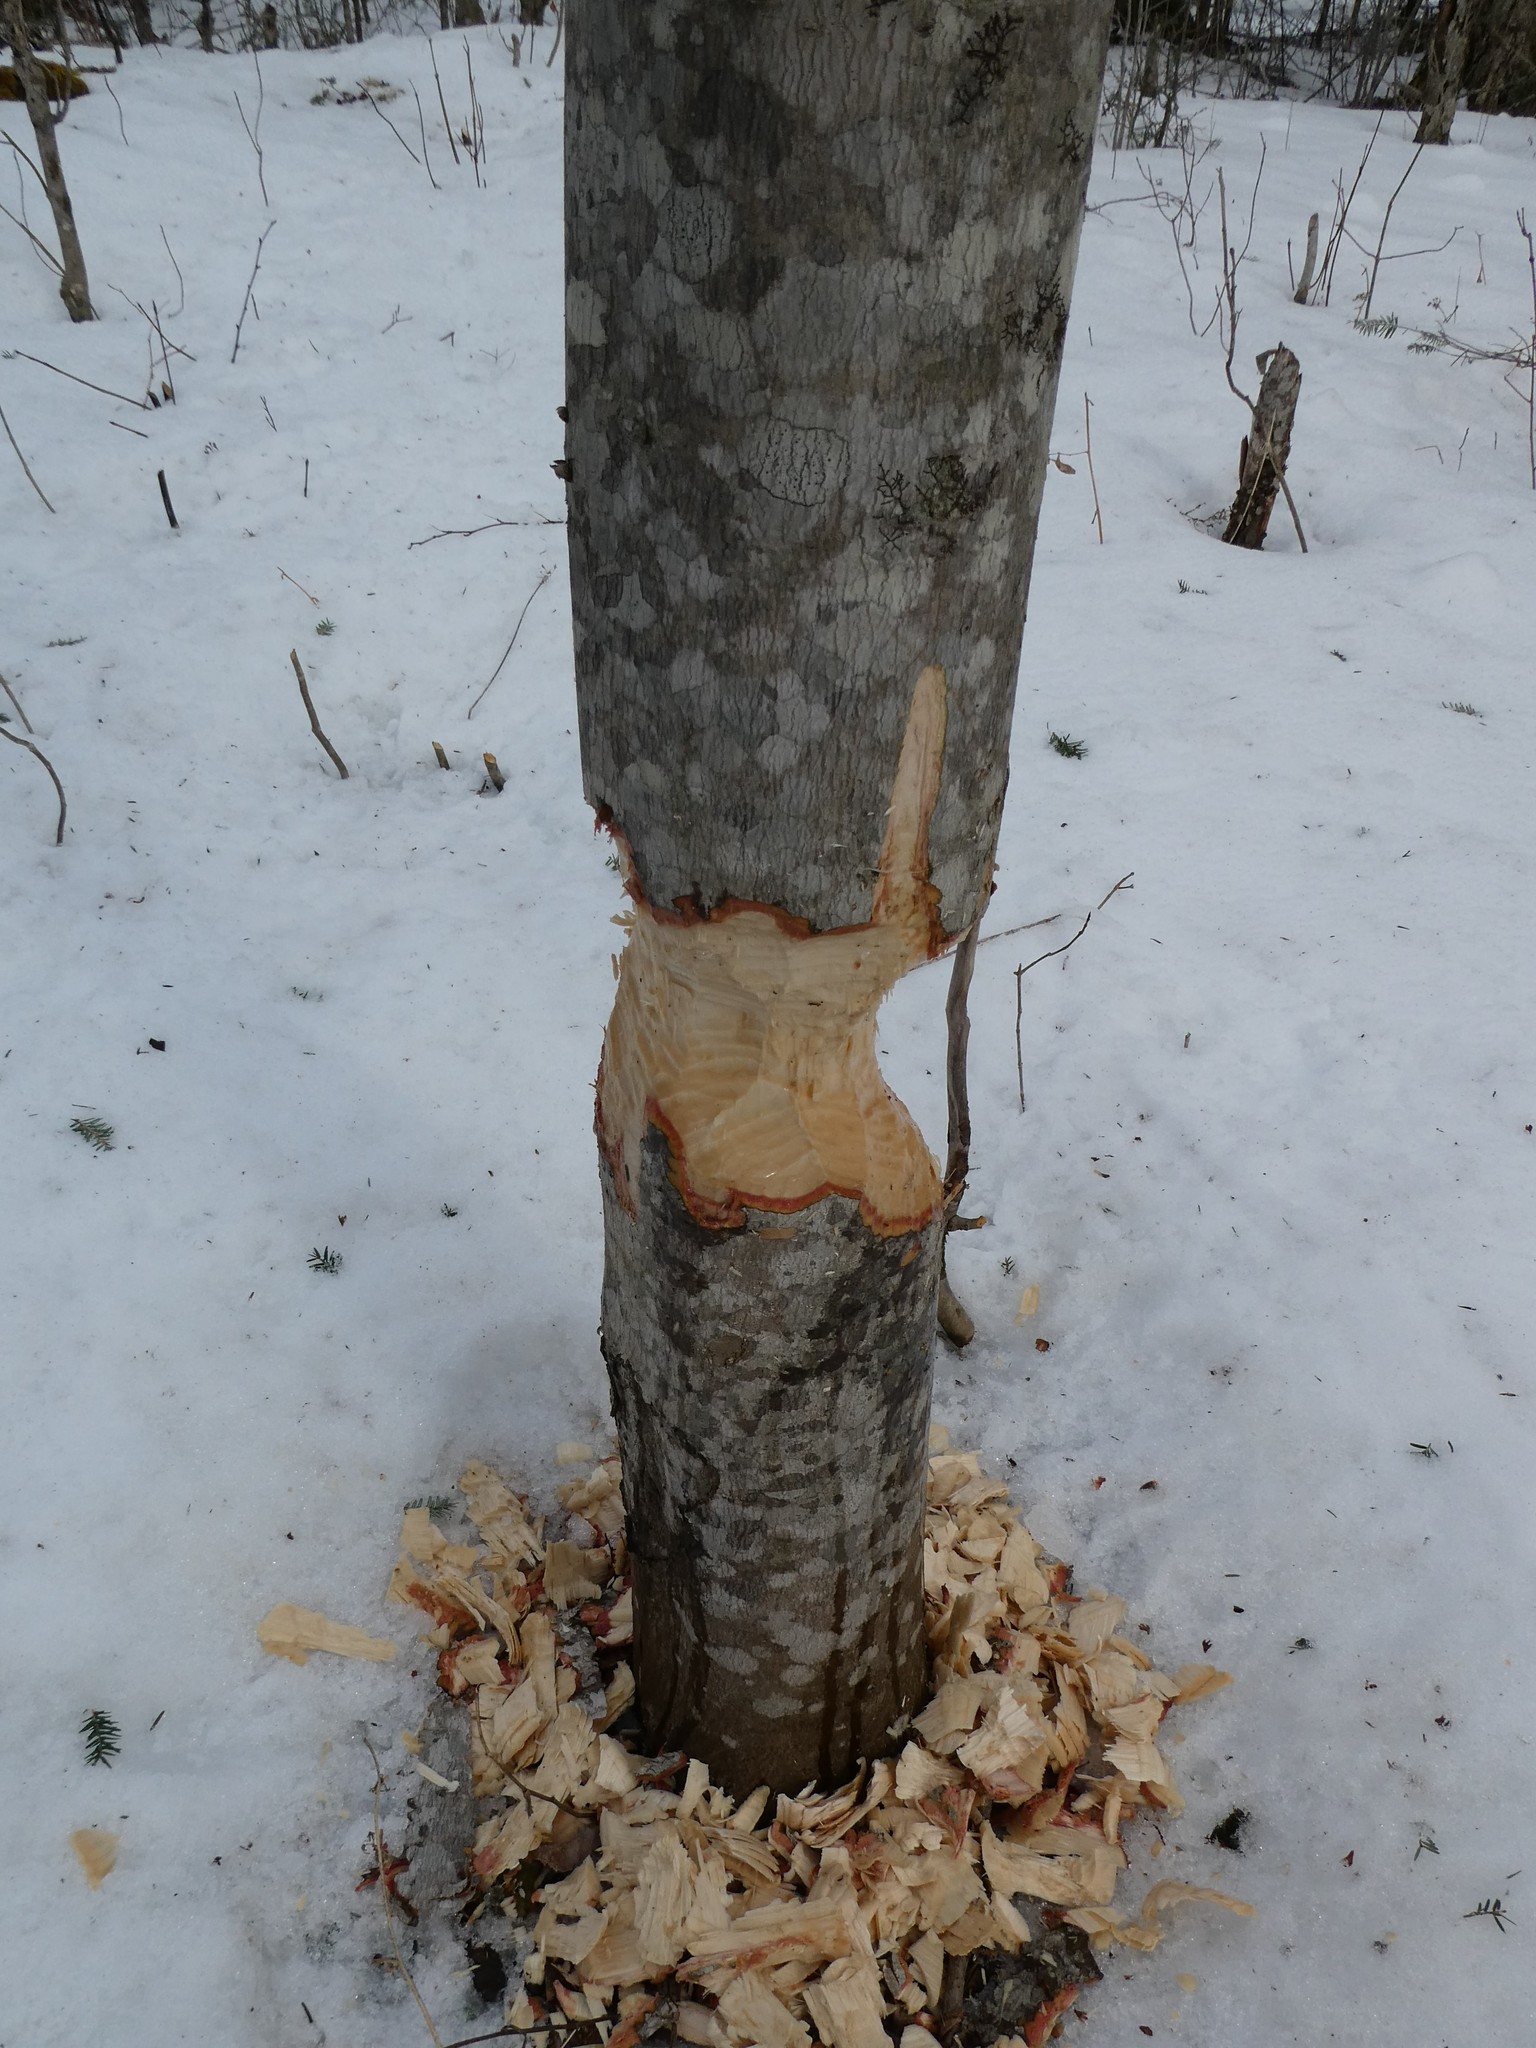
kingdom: Animalia
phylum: Chordata
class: Mammalia
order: Rodentia
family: Castoridae
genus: Castor
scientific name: Castor canadensis
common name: American beaver
